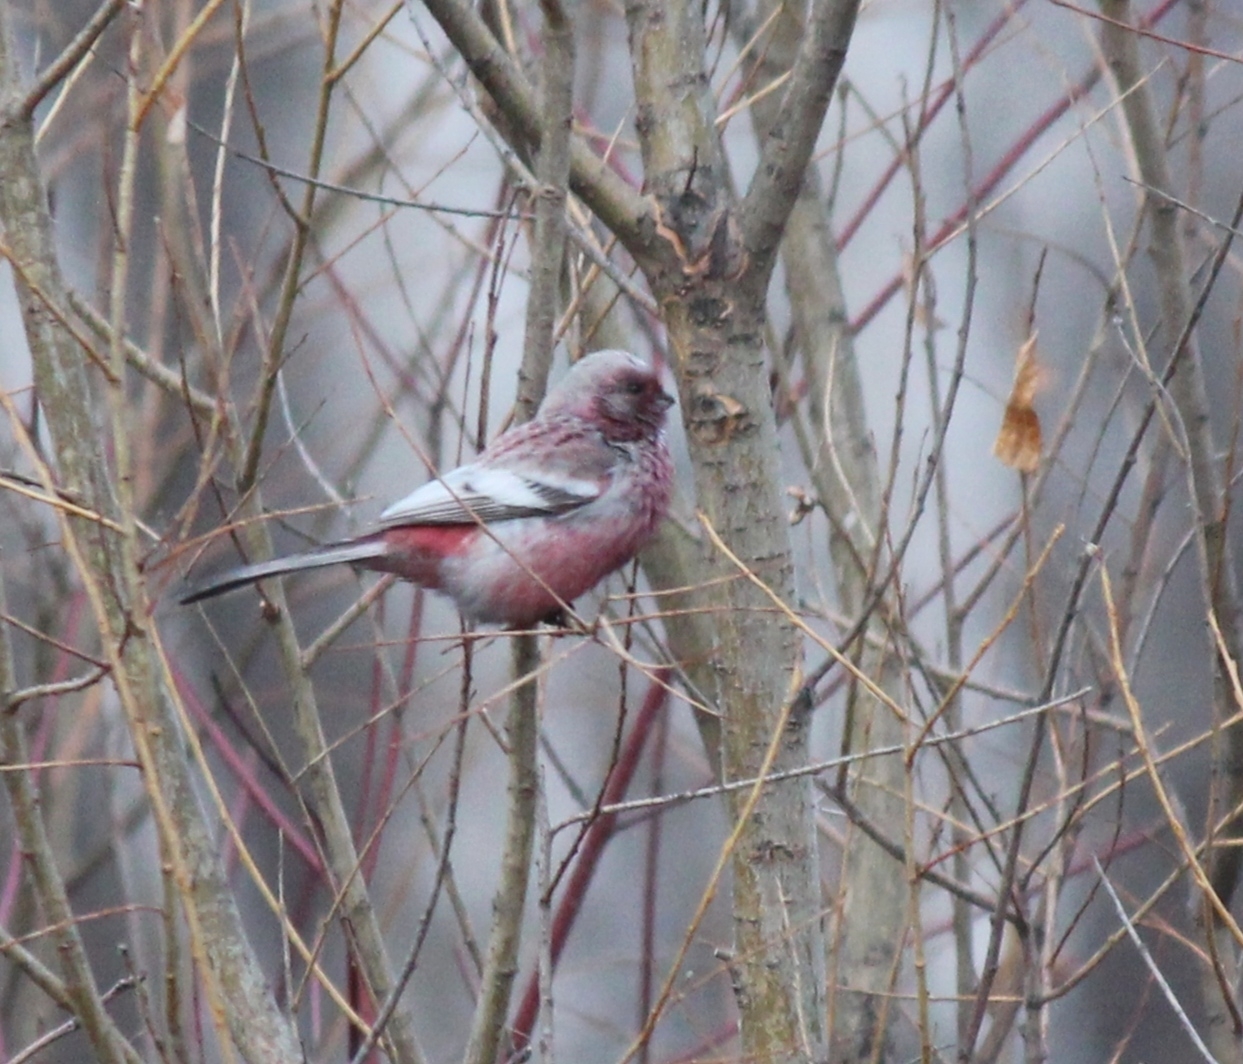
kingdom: Animalia
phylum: Chordata
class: Aves
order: Passeriformes
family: Fringillidae
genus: Carpodacus
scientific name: Carpodacus sibiricus
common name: Long-tailed rosefinch
